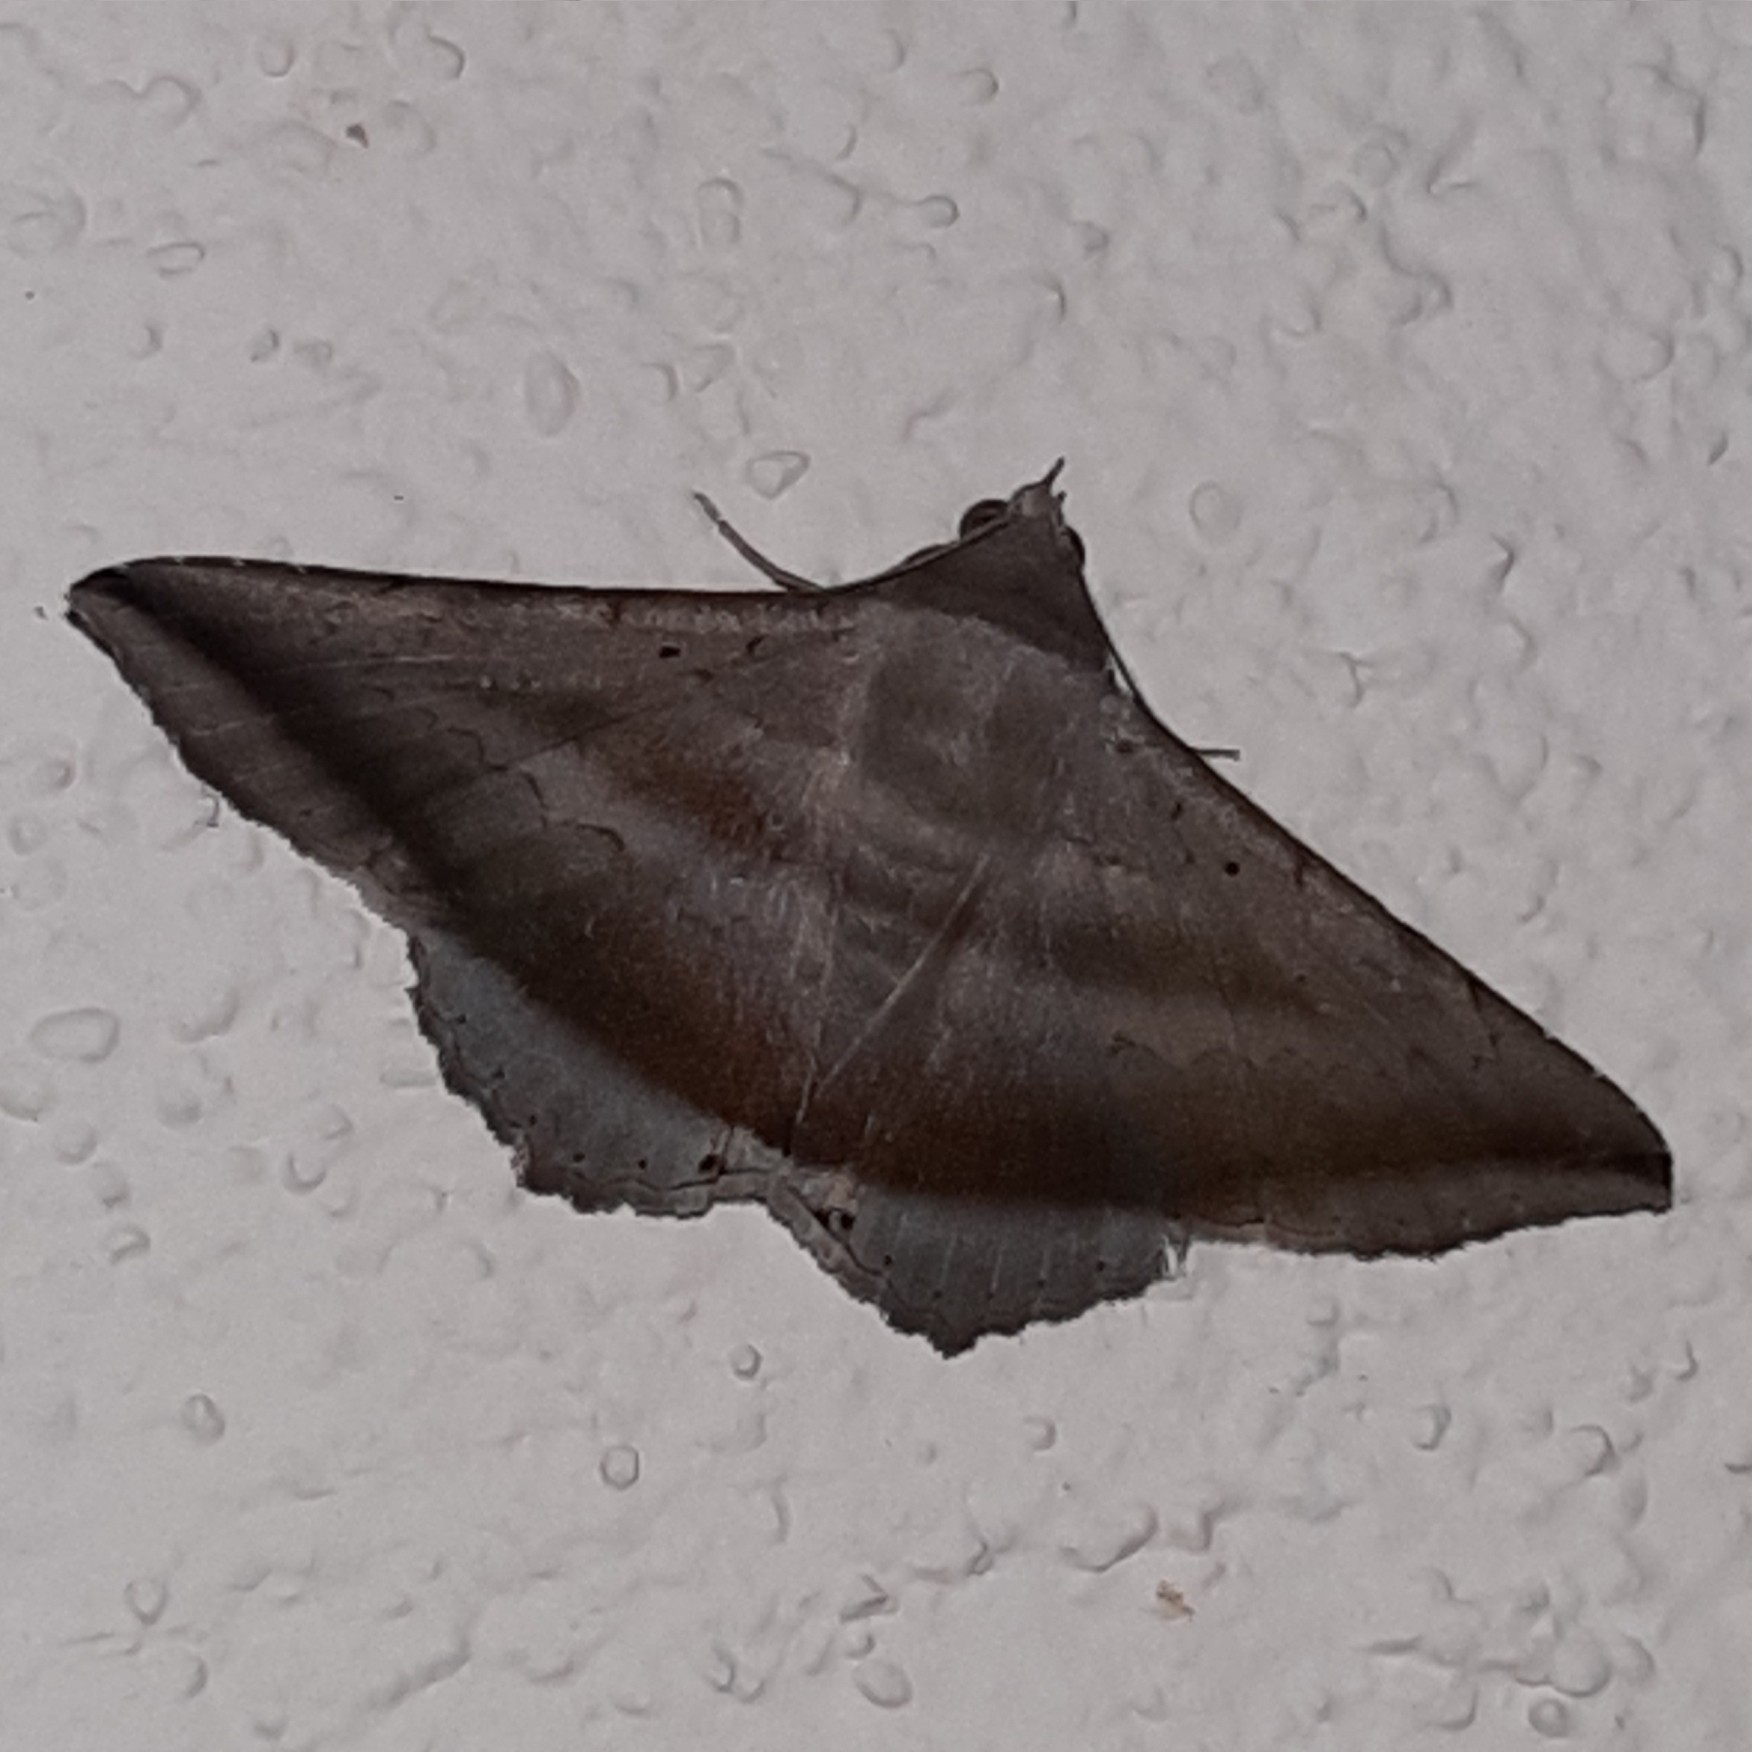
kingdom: Animalia
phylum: Arthropoda
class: Insecta
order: Lepidoptera
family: Erebidae
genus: Lesmone
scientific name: Lesmone formularis
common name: Lesmone moth
